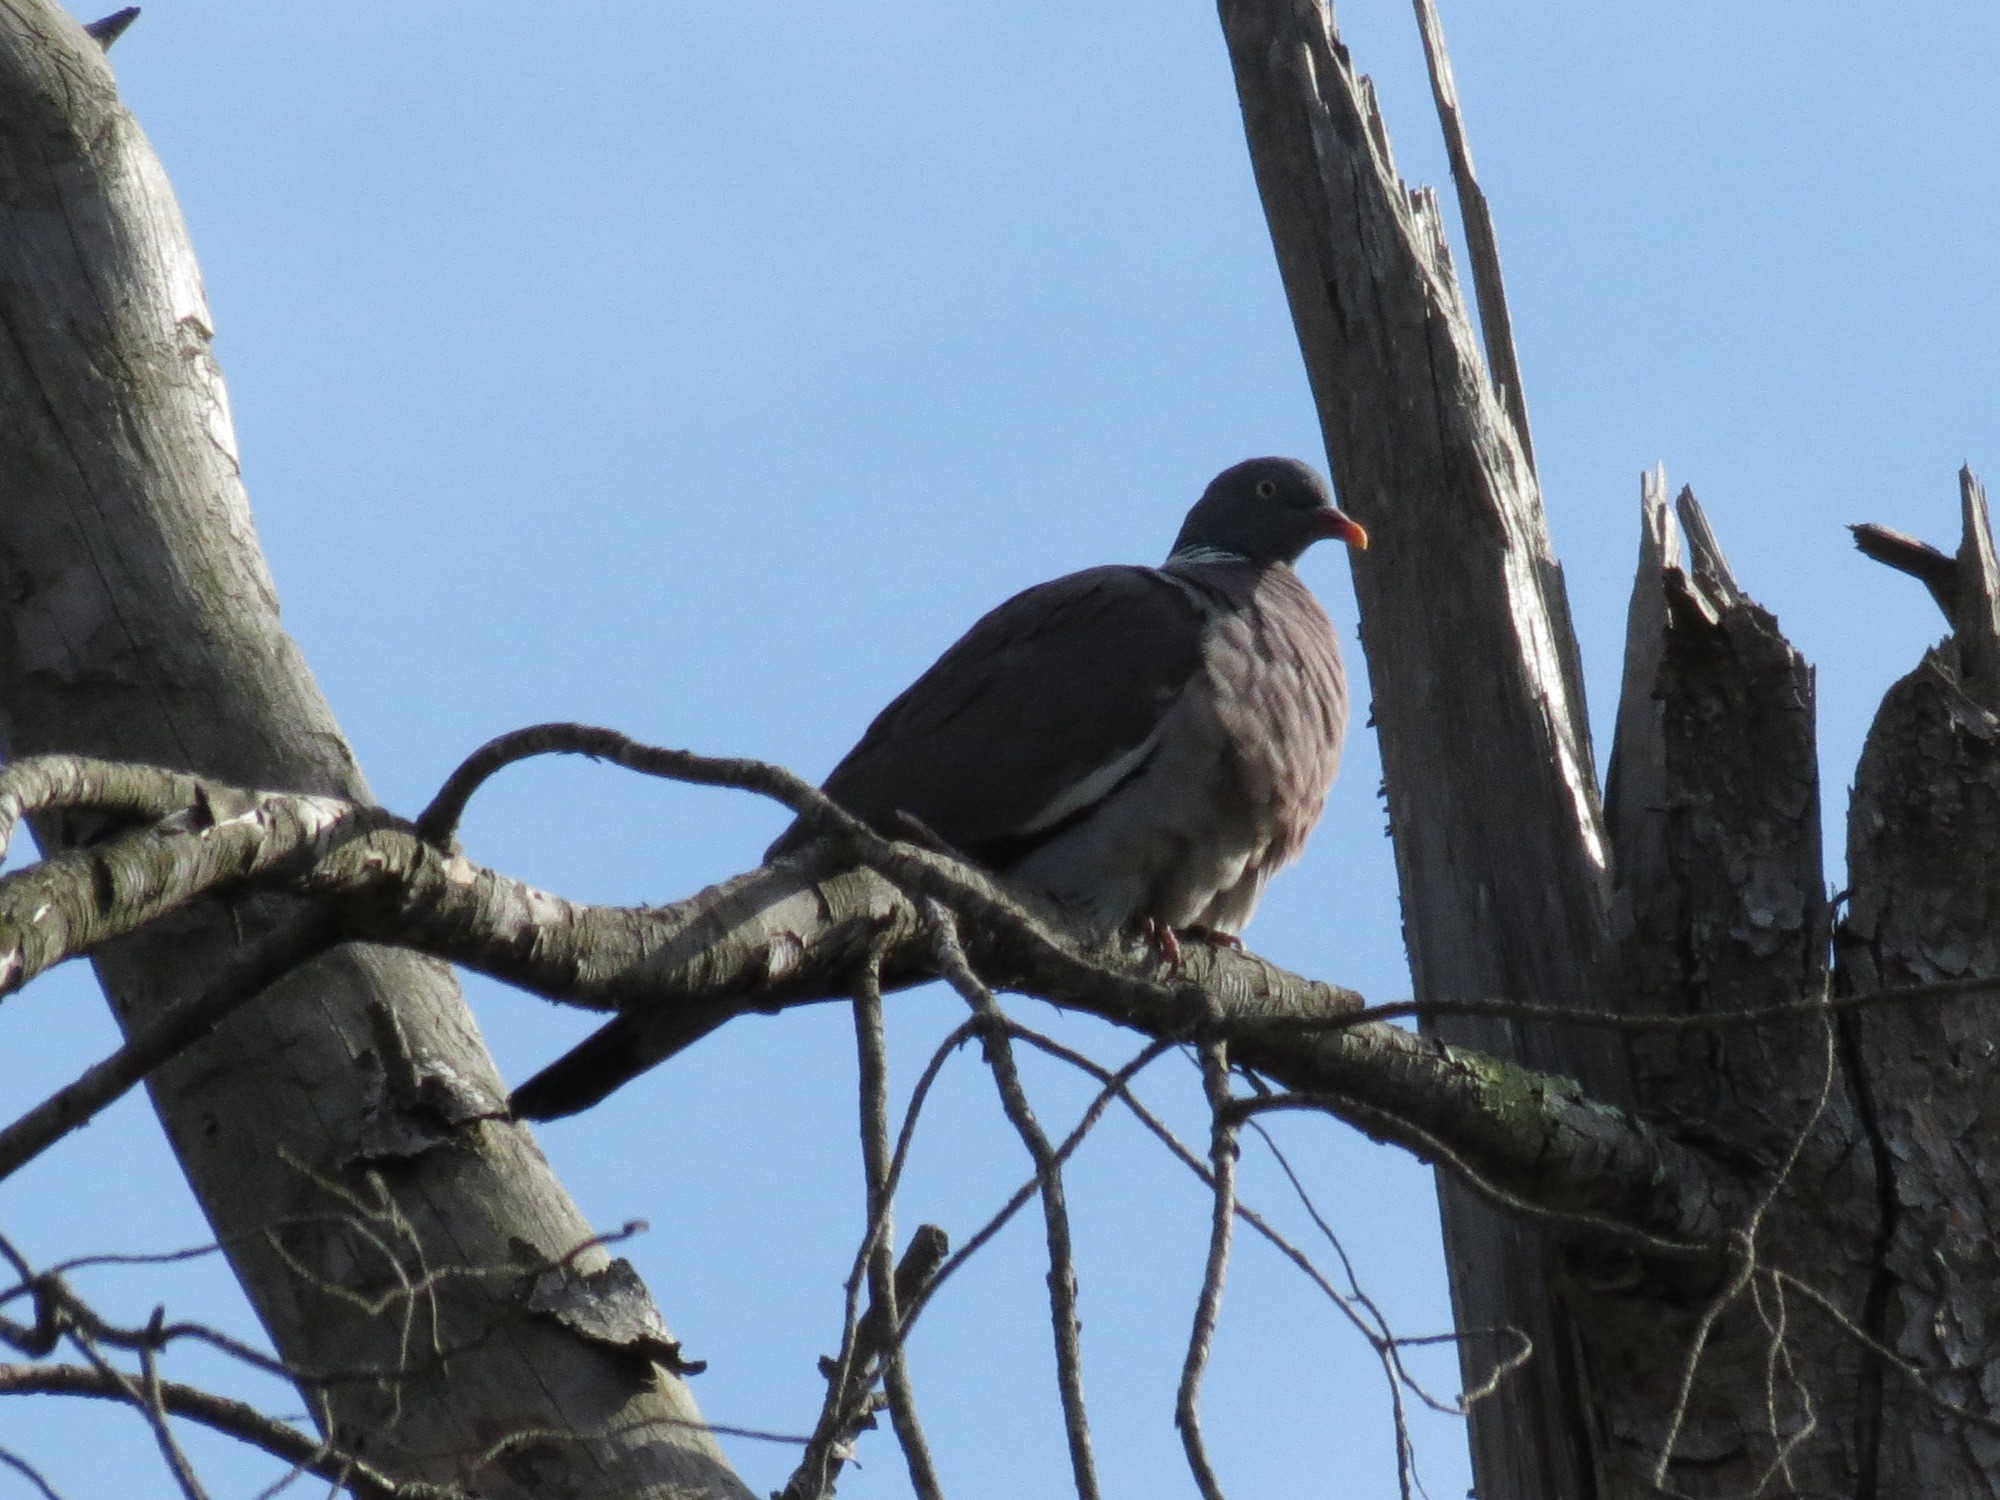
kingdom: Animalia
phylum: Chordata
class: Aves
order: Columbiformes
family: Columbidae
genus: Columba
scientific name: Columba palumbus
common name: Common wood pigeon
